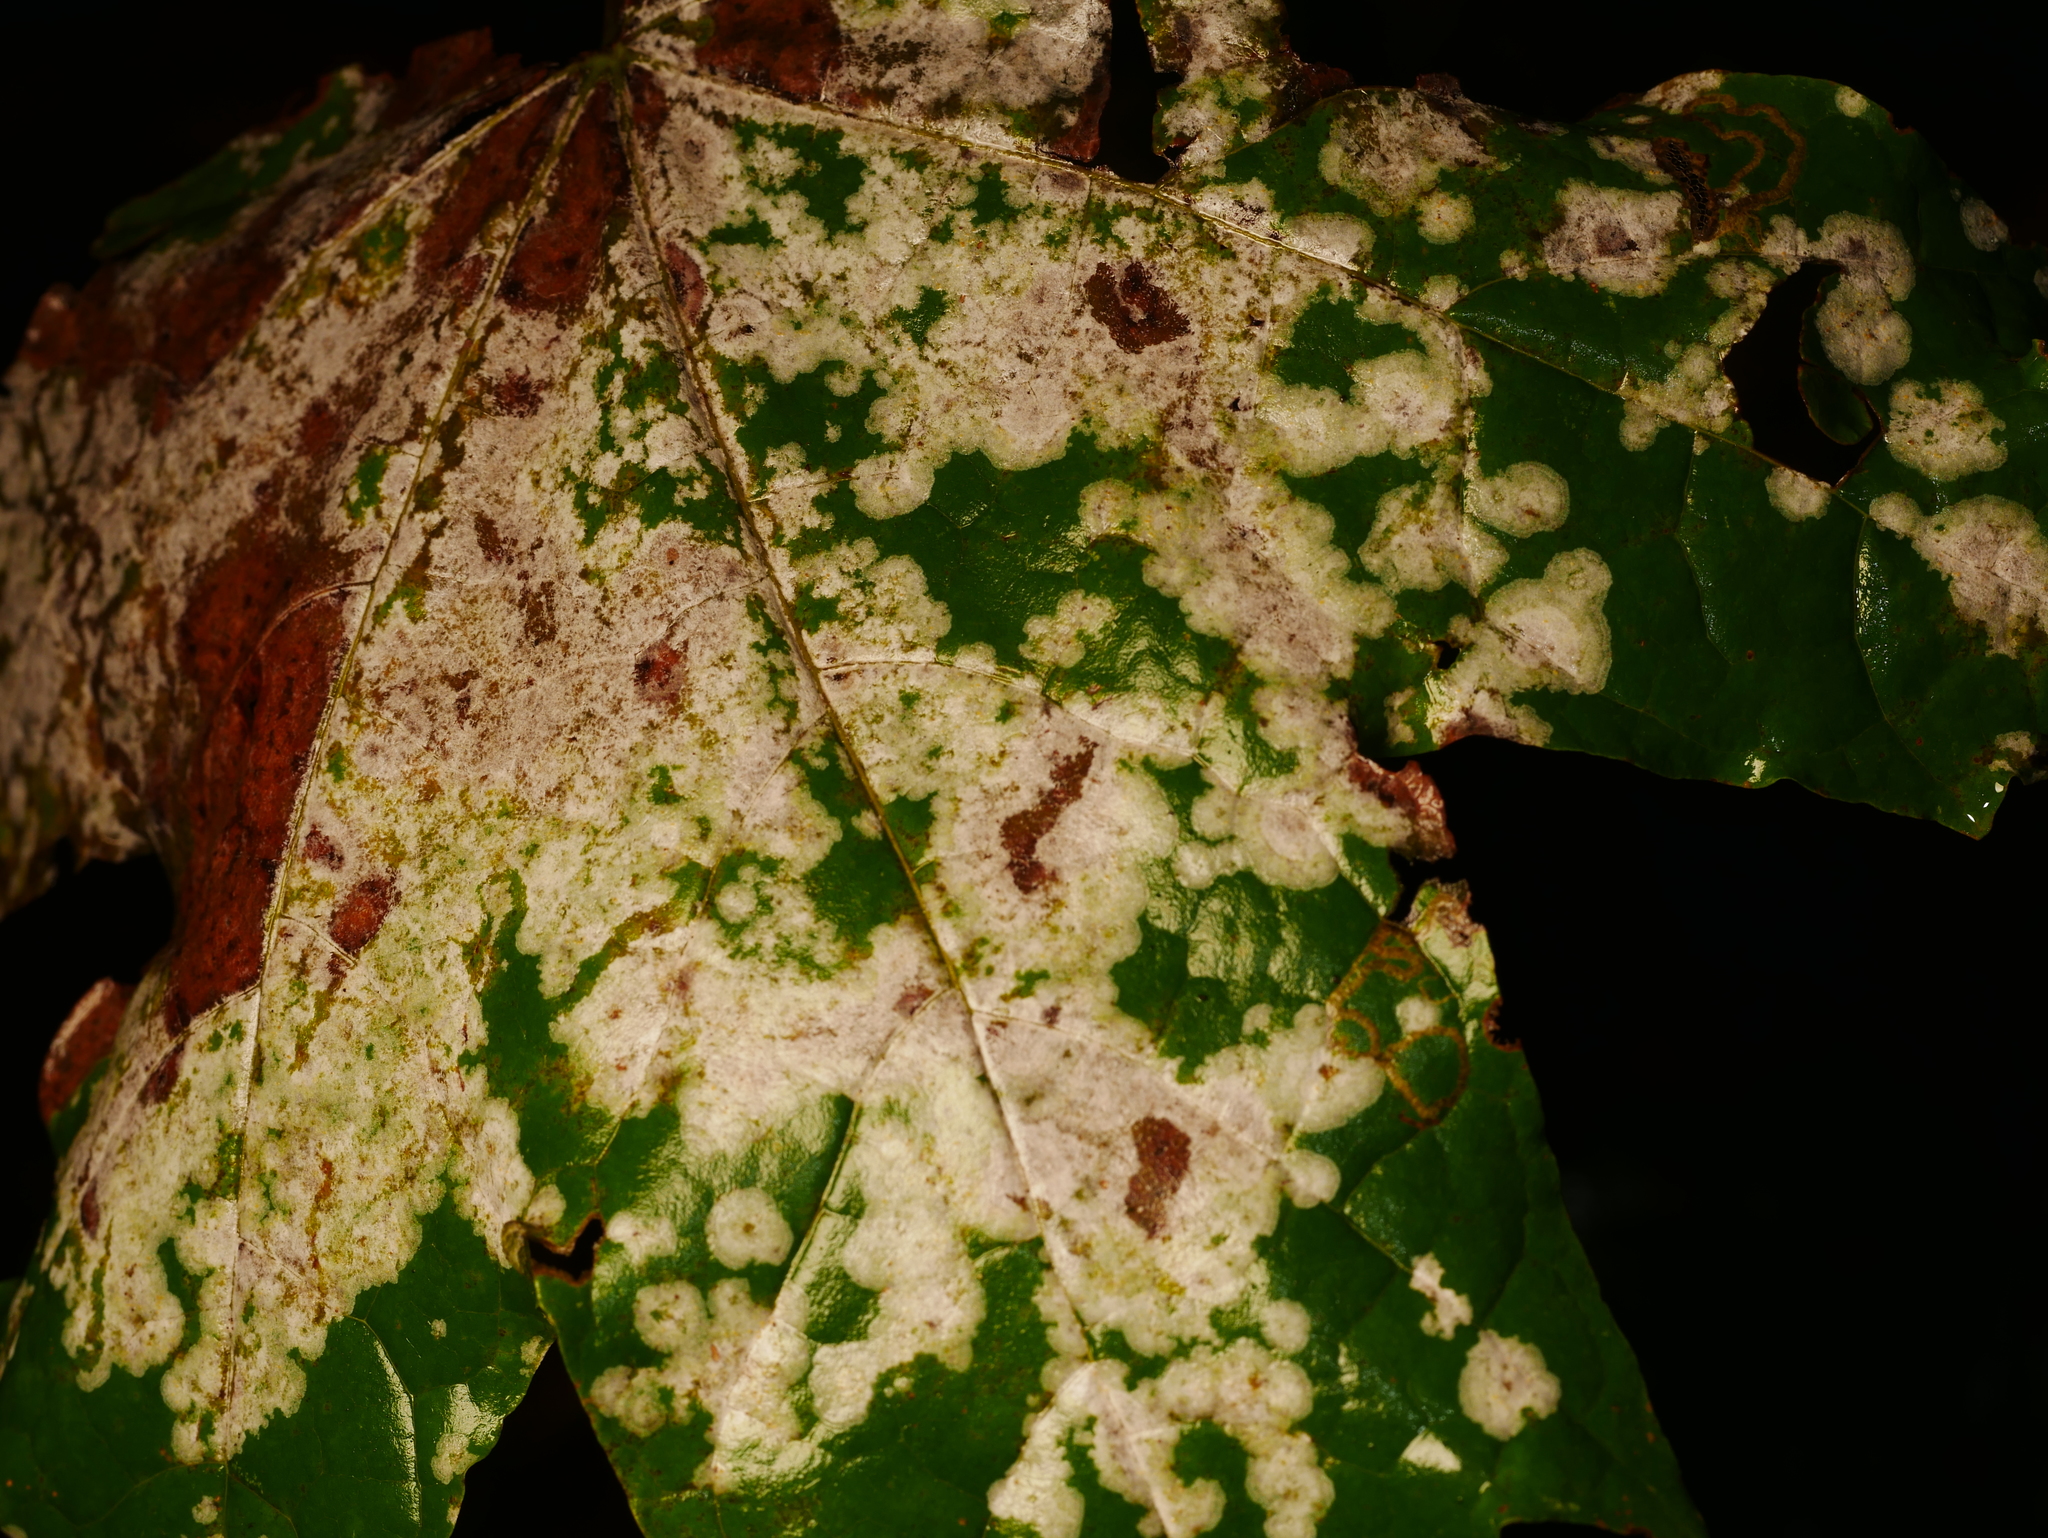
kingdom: Fungi
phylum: Ascomycota
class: Leotiomycetes
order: Helotiales
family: Erysiphaceae
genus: Sawadaea
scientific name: Sawadaea tulasnei
